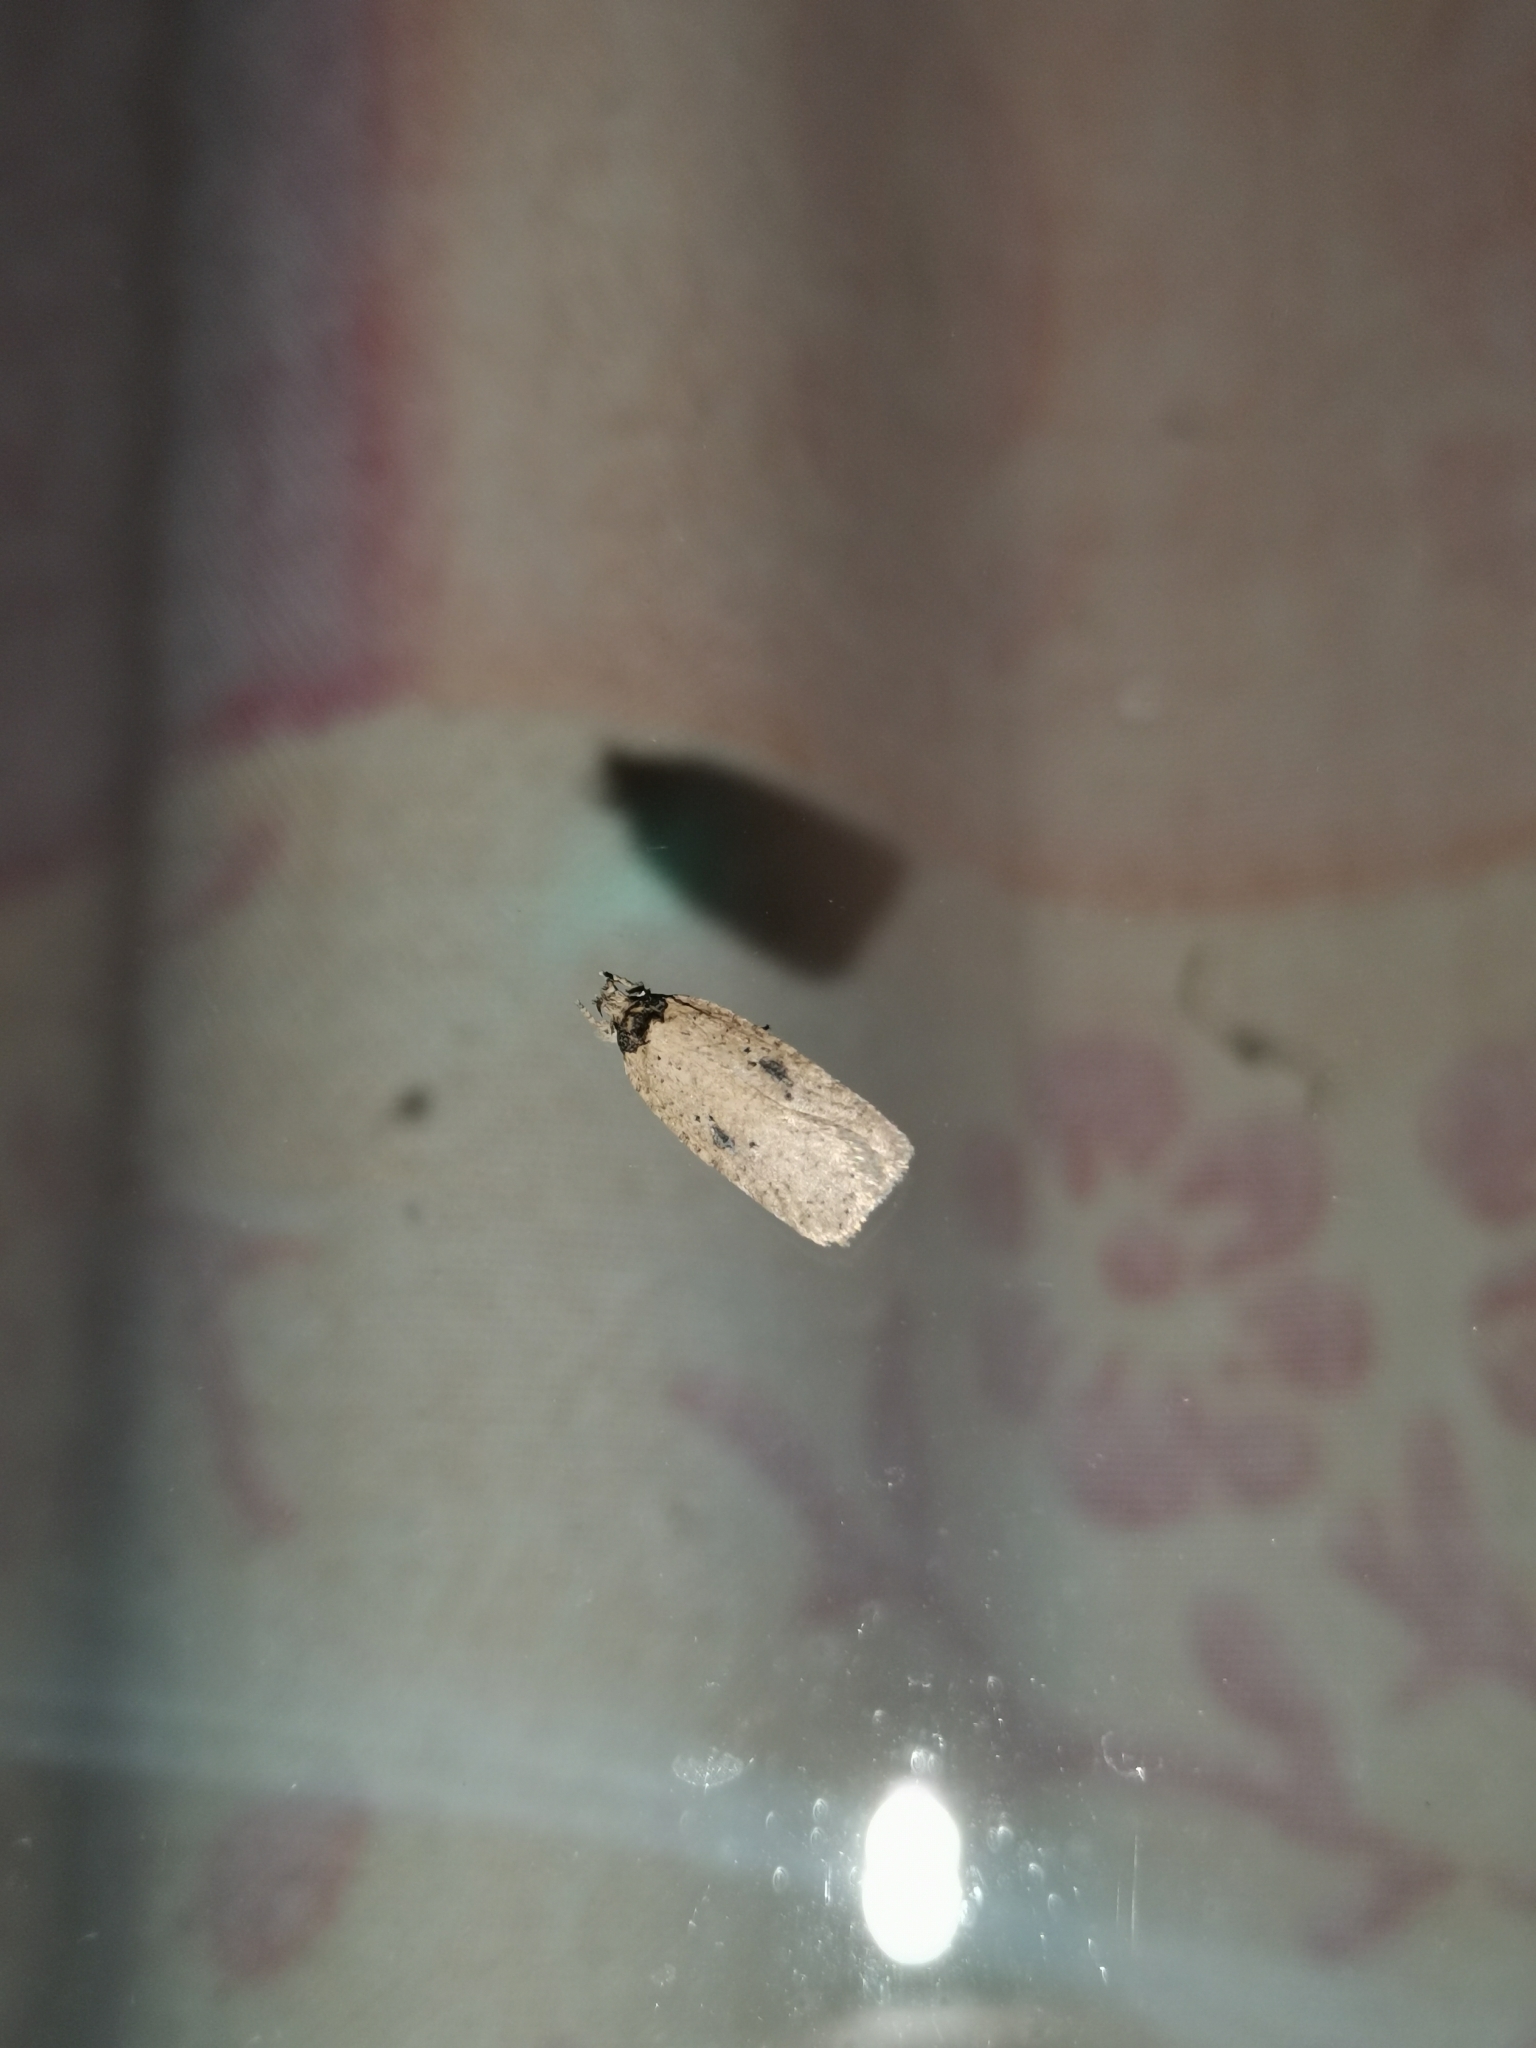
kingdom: Animalia
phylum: Arthropoda
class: Insecta
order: Lepidoptera
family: Depressariidae
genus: Agonopterix
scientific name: Agonopterix subpropinquella
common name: Ruddy flat-body
